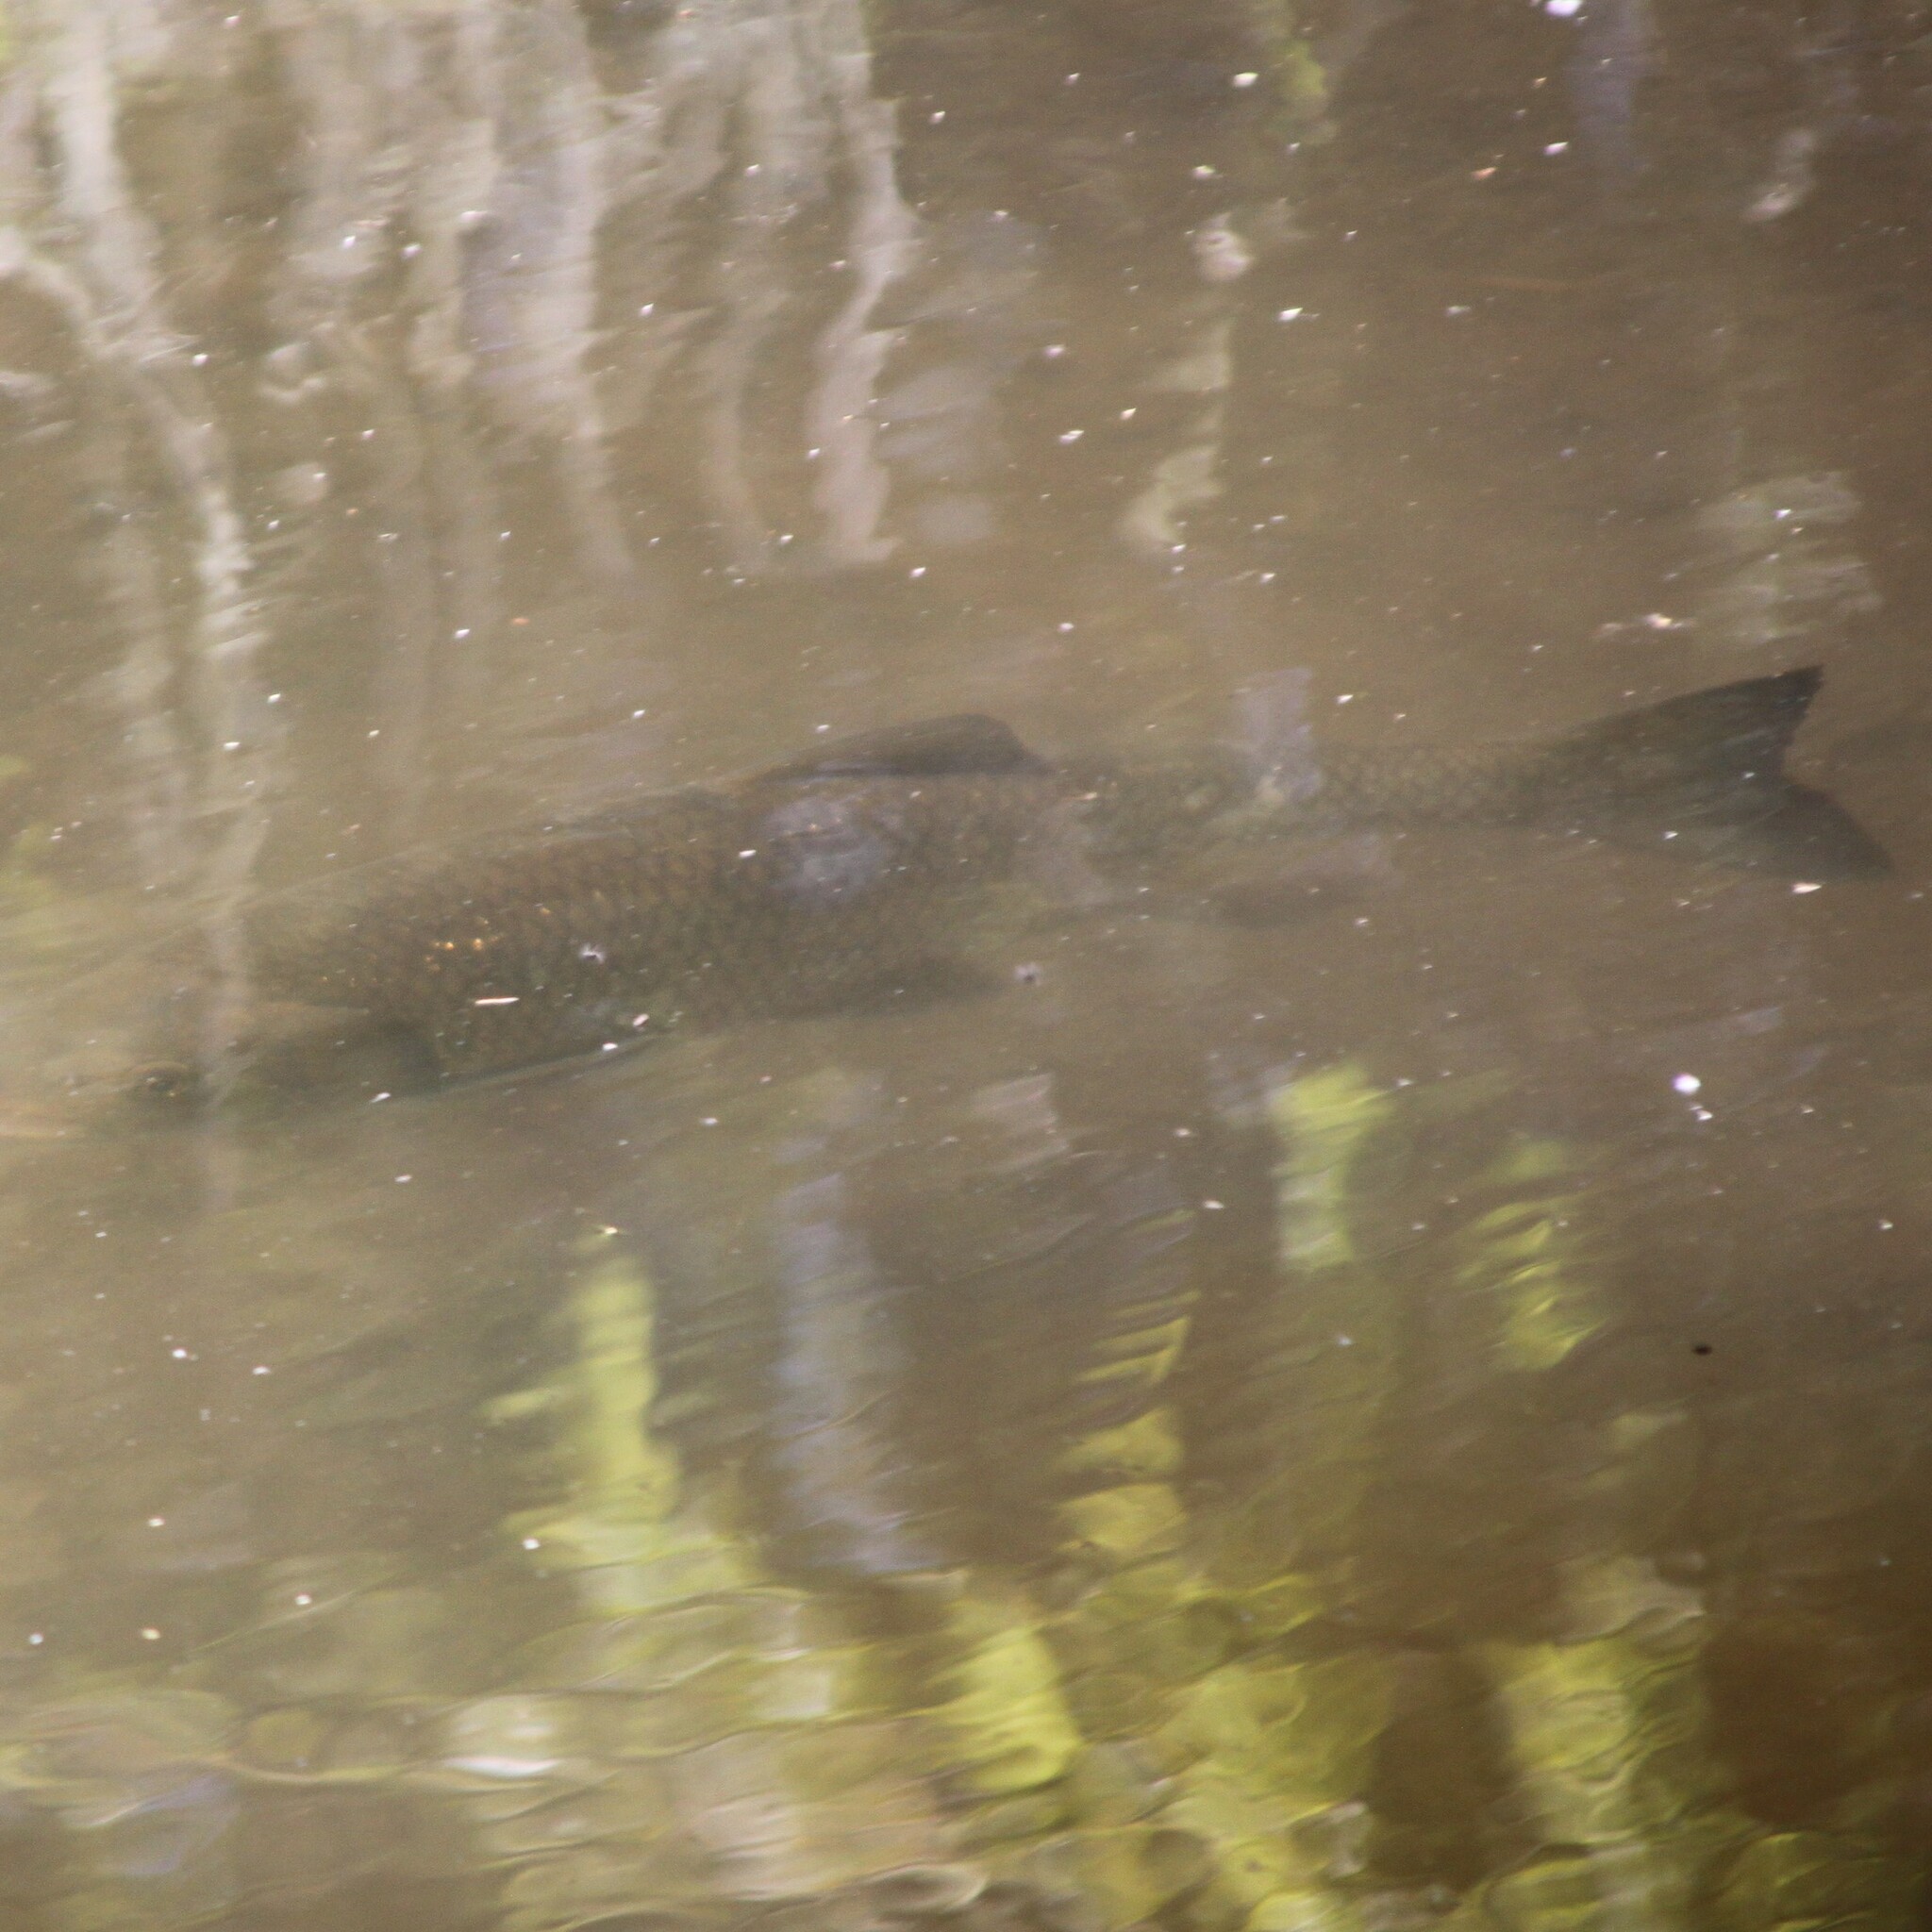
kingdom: Animalia
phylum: Chordata
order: Cypriniformes
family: Cyprinidae
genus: Squalius
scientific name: Squalius cephalus
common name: Chub
